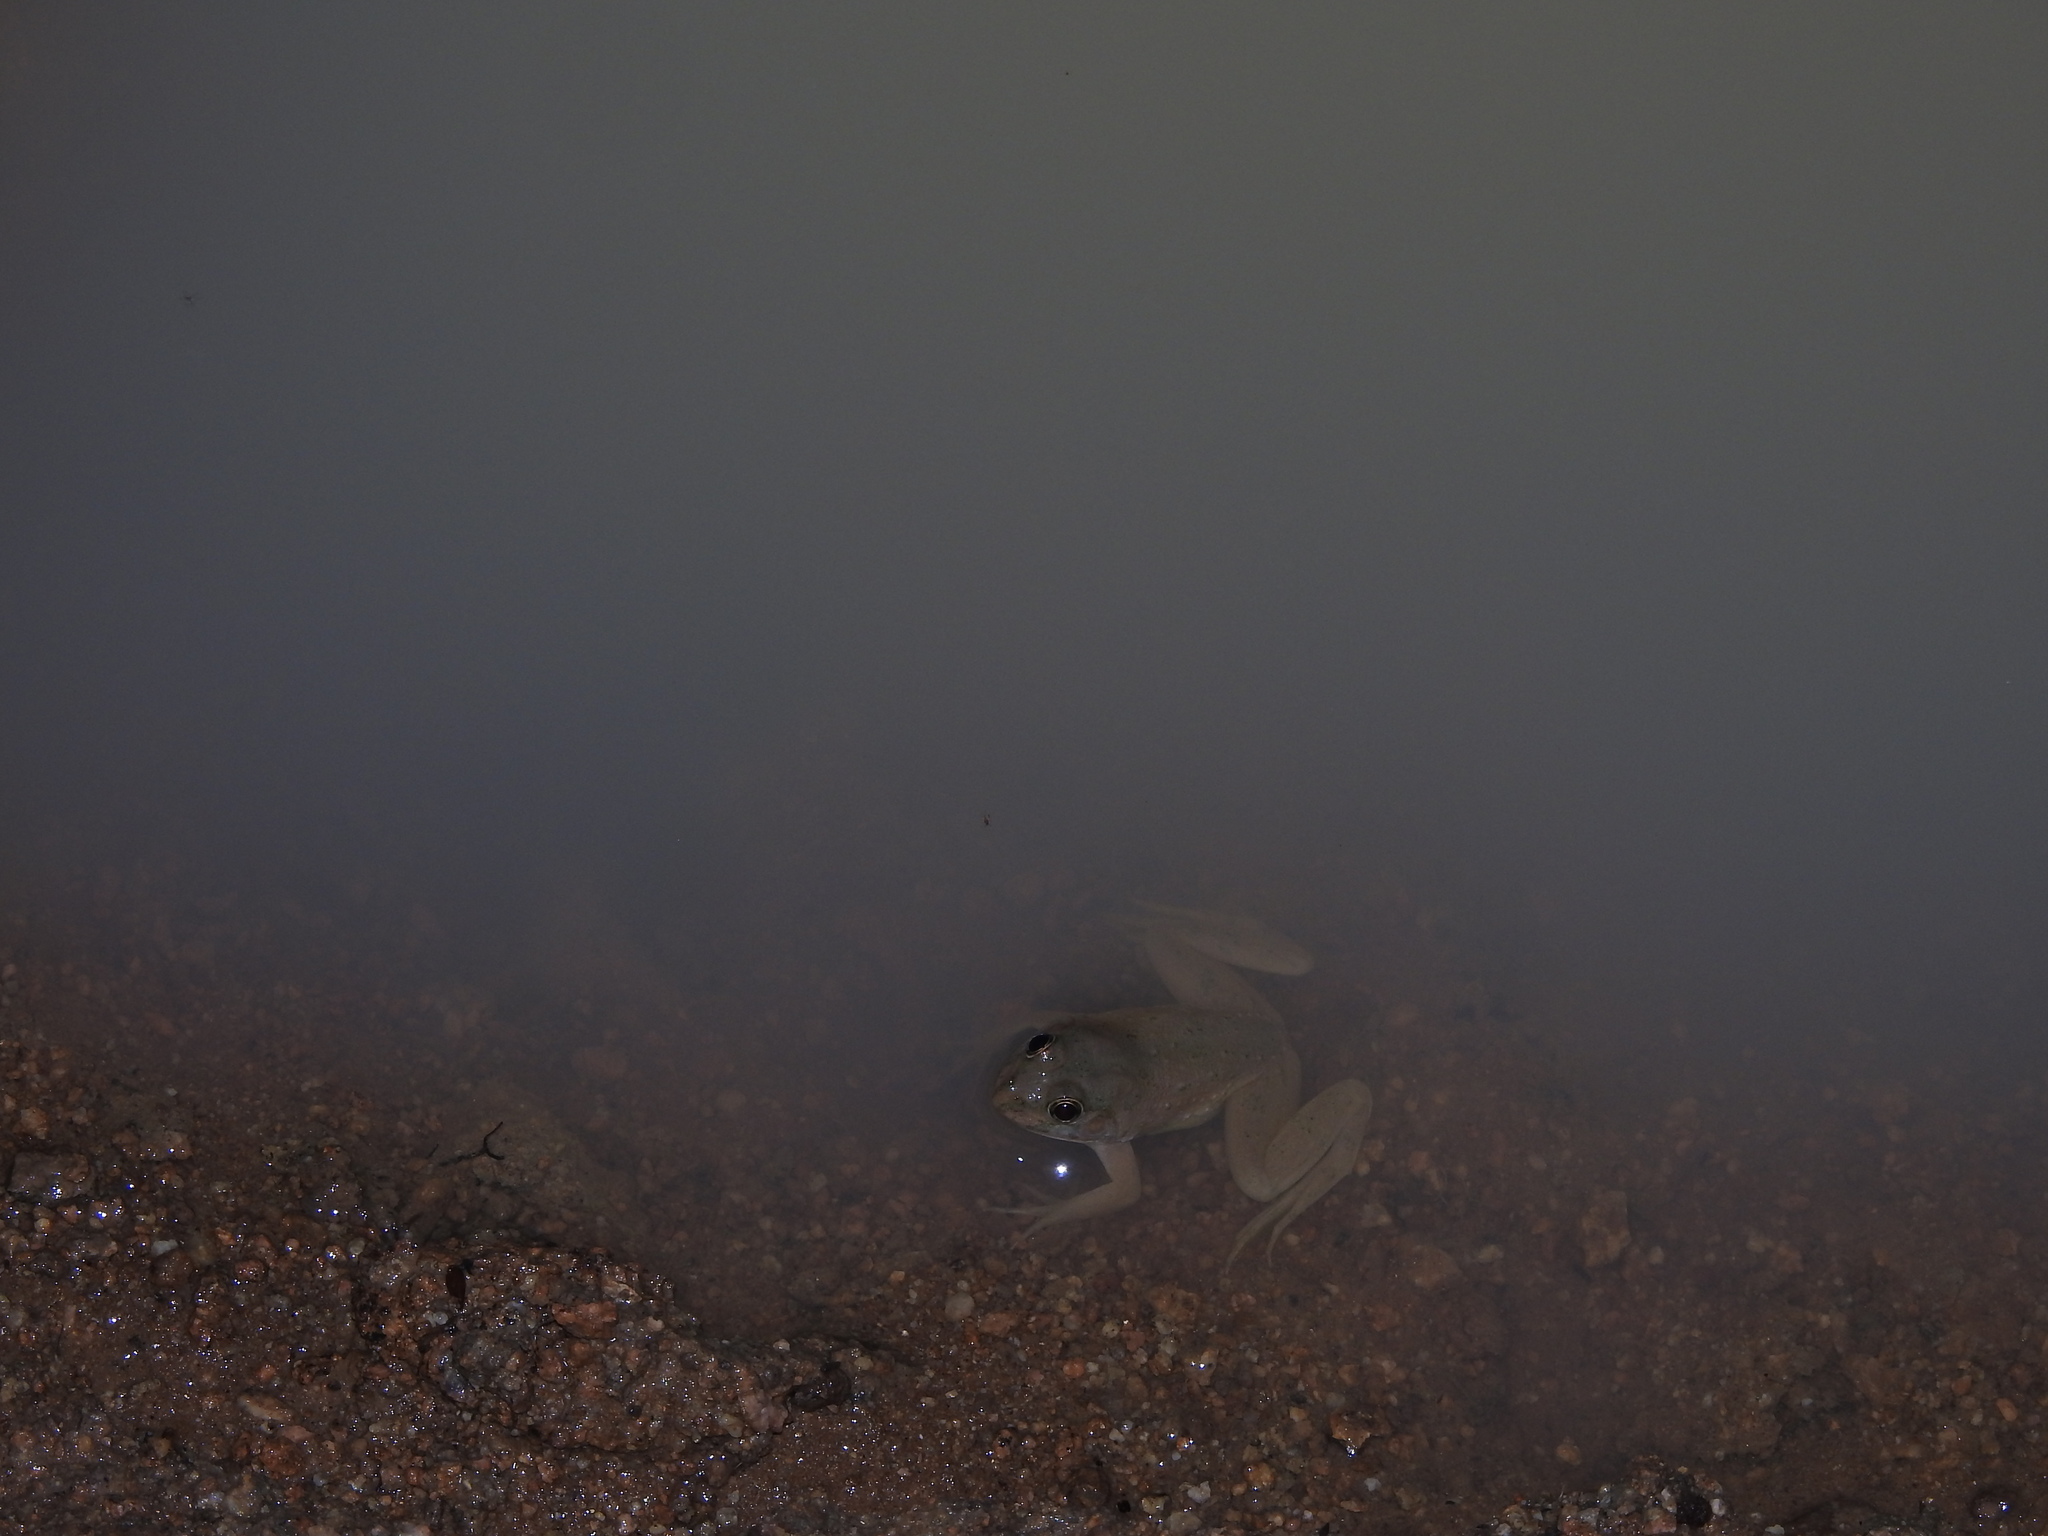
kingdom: Animalia
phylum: Chordata
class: Amphibia
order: Anura
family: Dicroglossidae
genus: Euphlyctis
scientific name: Euphlyctis cyanophlyctis
